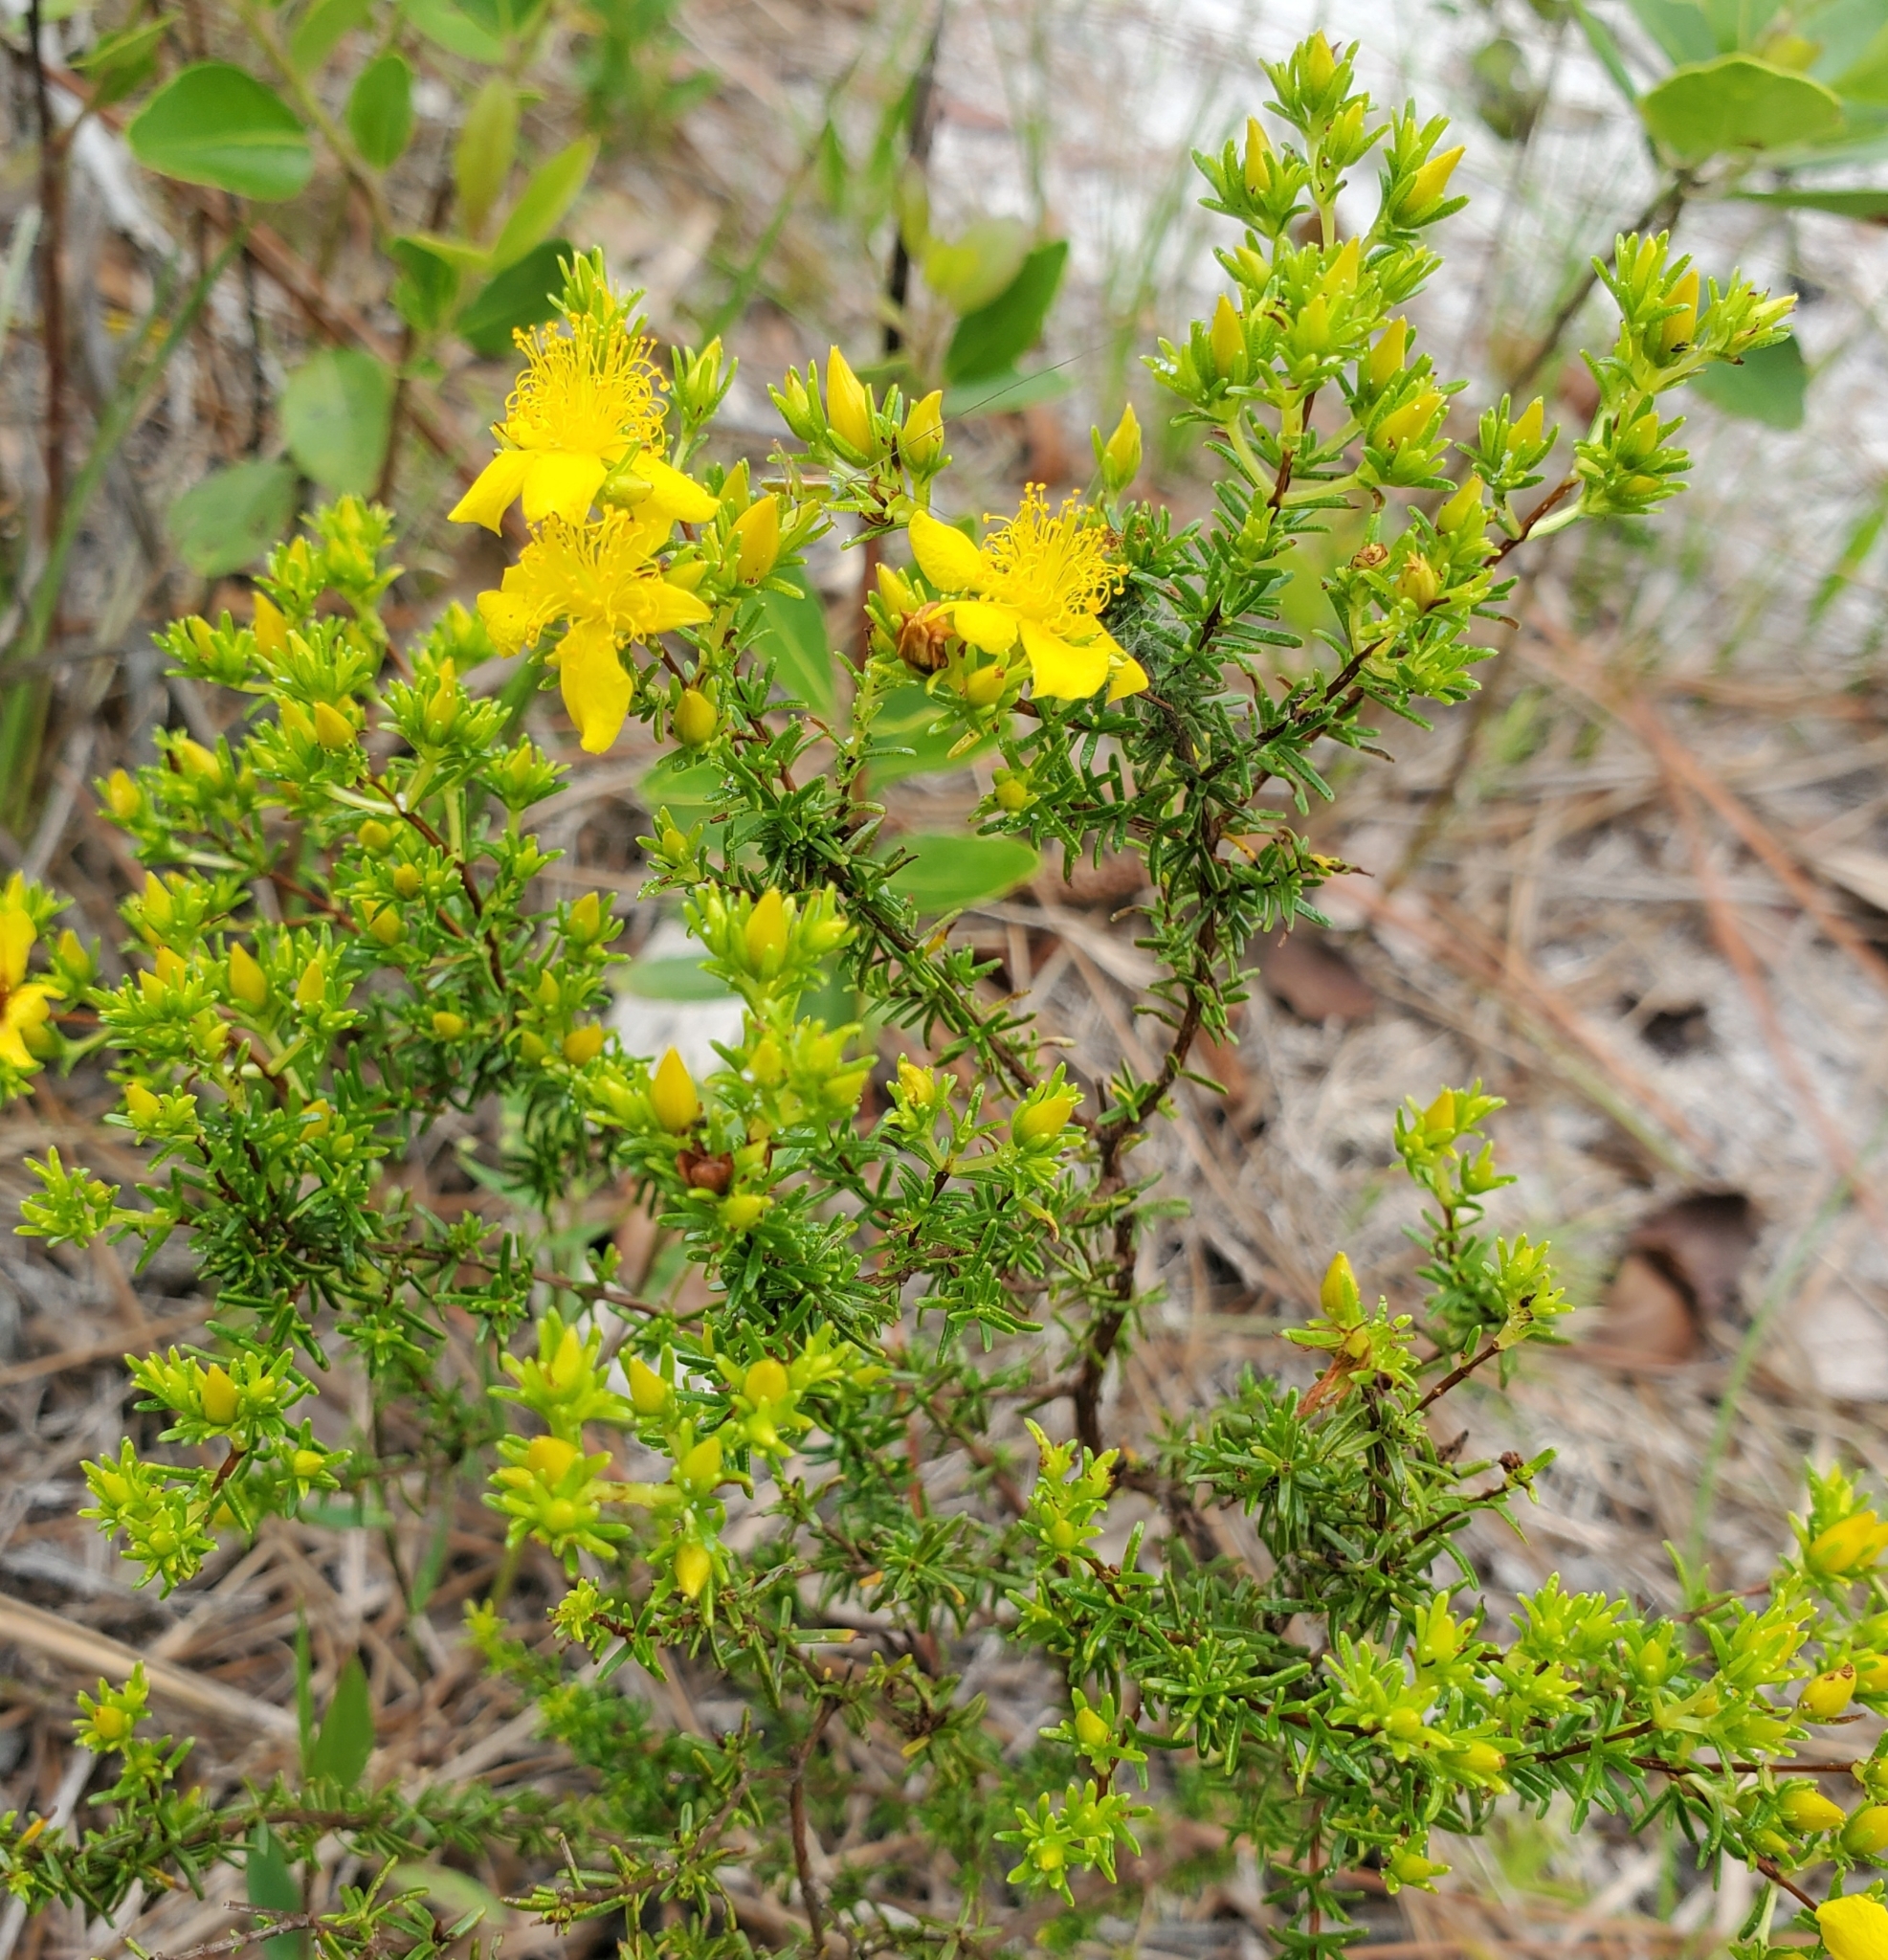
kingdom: Plantae
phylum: Tracheophyta
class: Magnoliopsida
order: Malpighiales
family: Hypericaceae
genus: Hypericum
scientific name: Hypericum tenuifolium
